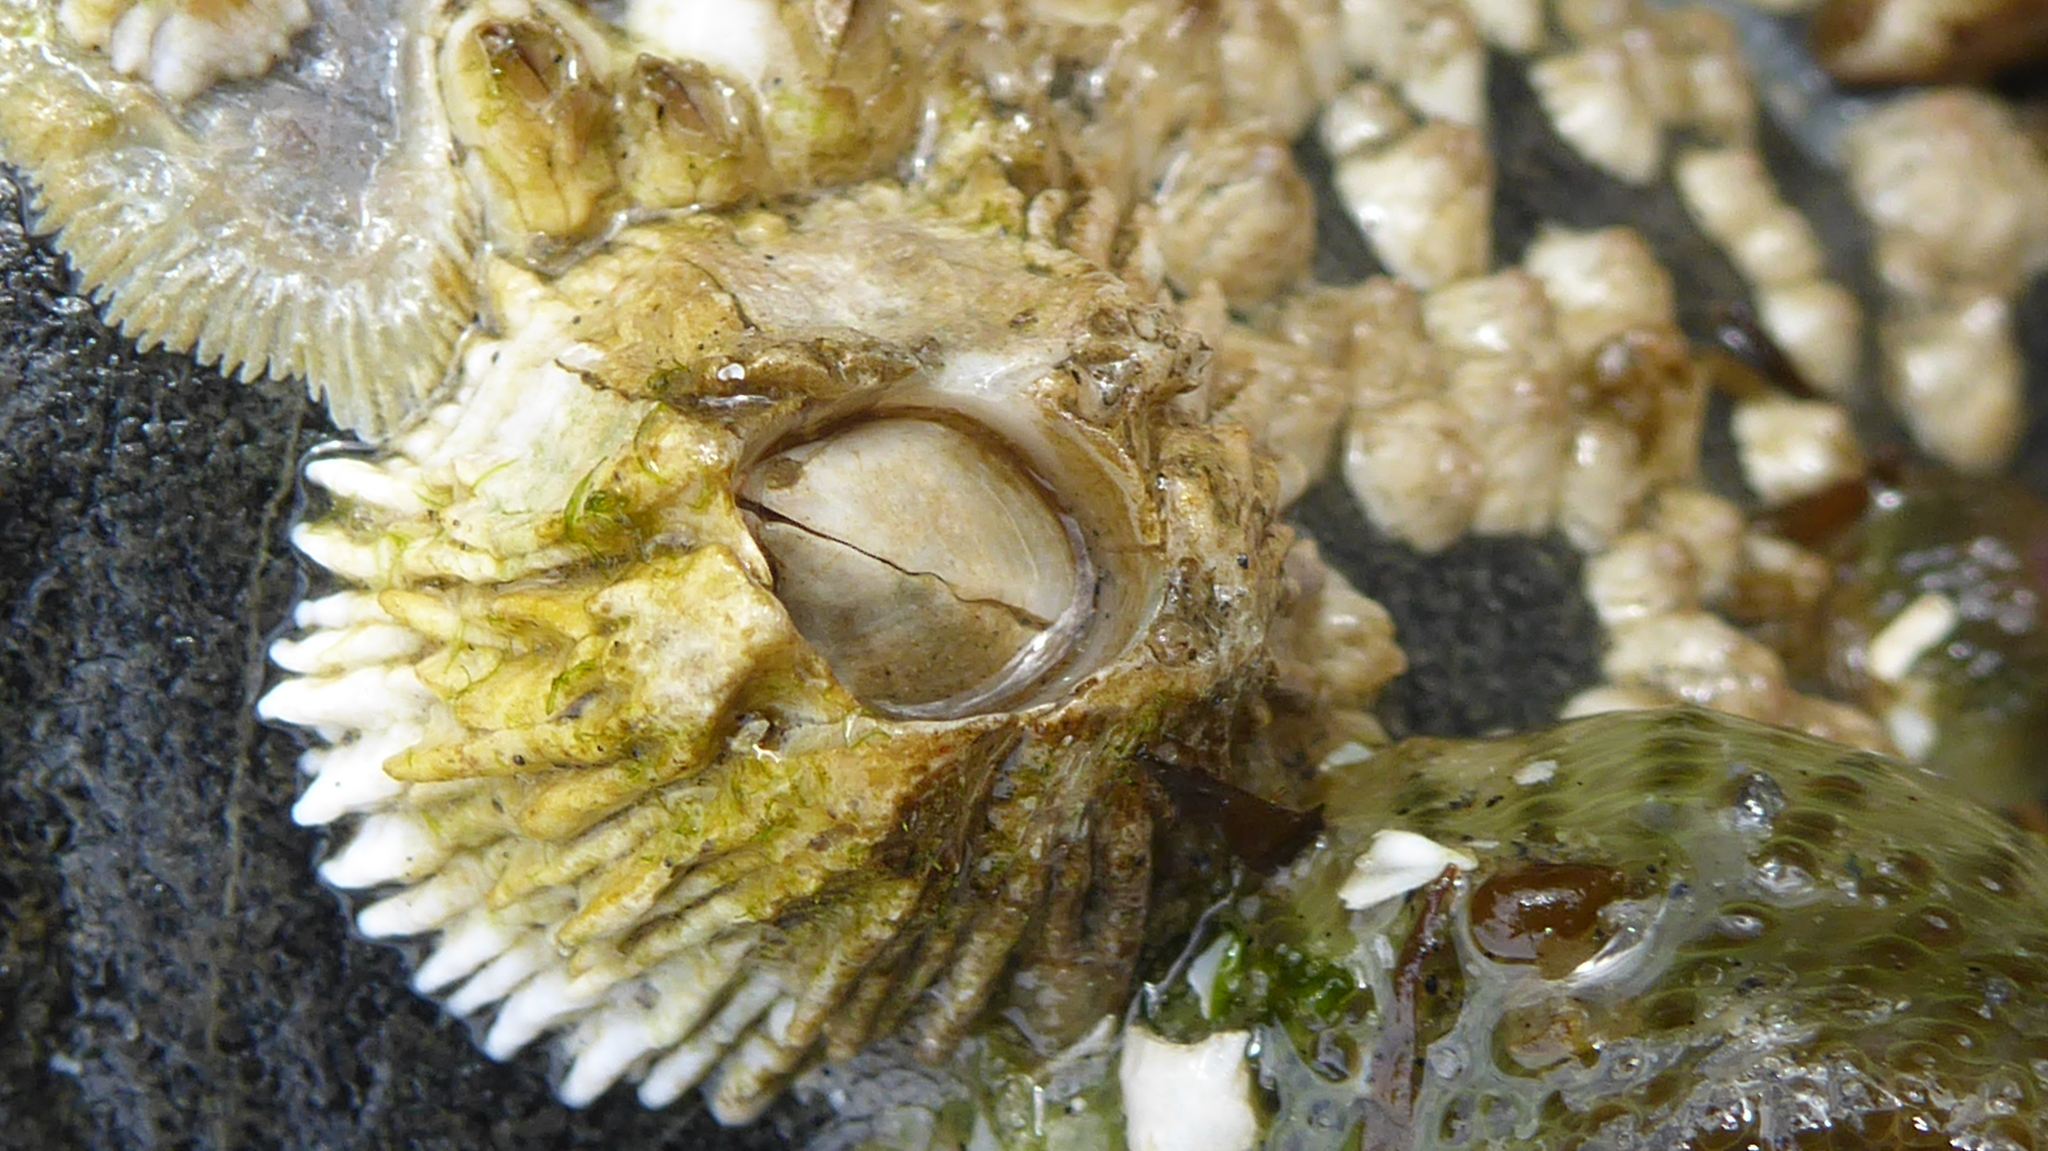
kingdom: Animalia
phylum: Arthropoda
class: Maxillopoda
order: Sessilia
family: Archaeobalanidae
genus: Semibalanus
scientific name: Semibalanus cariosus
